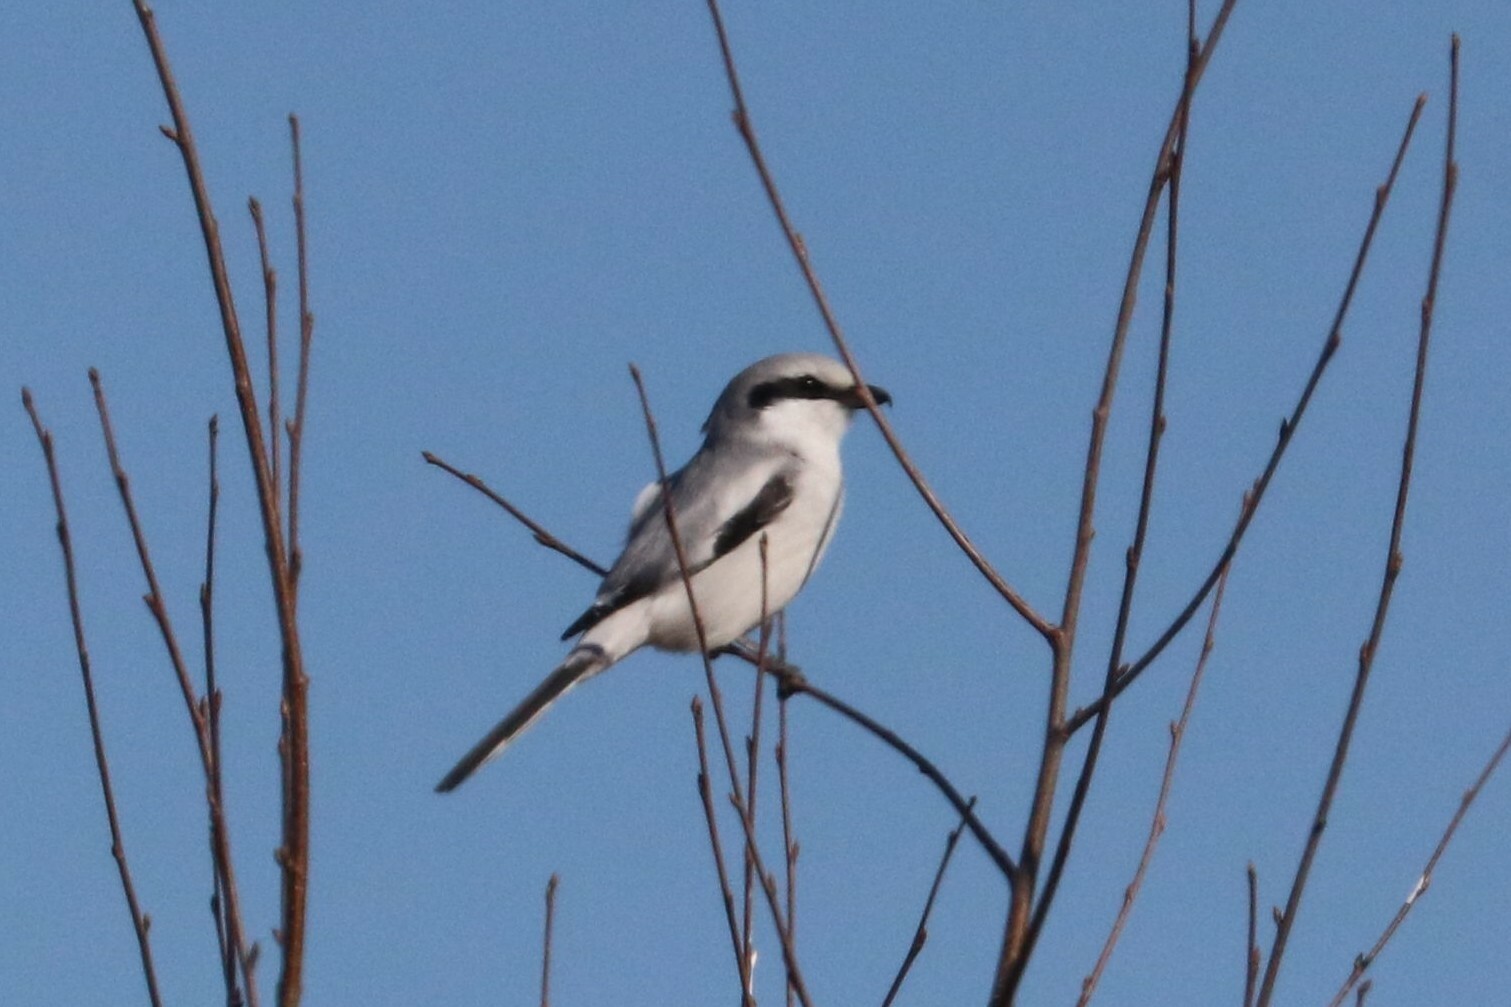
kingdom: Animalia
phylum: Chordata
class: Aves
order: Passeriformes
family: Laniidae
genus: Lanius
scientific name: Lanius excubitor
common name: Great grey shrike
